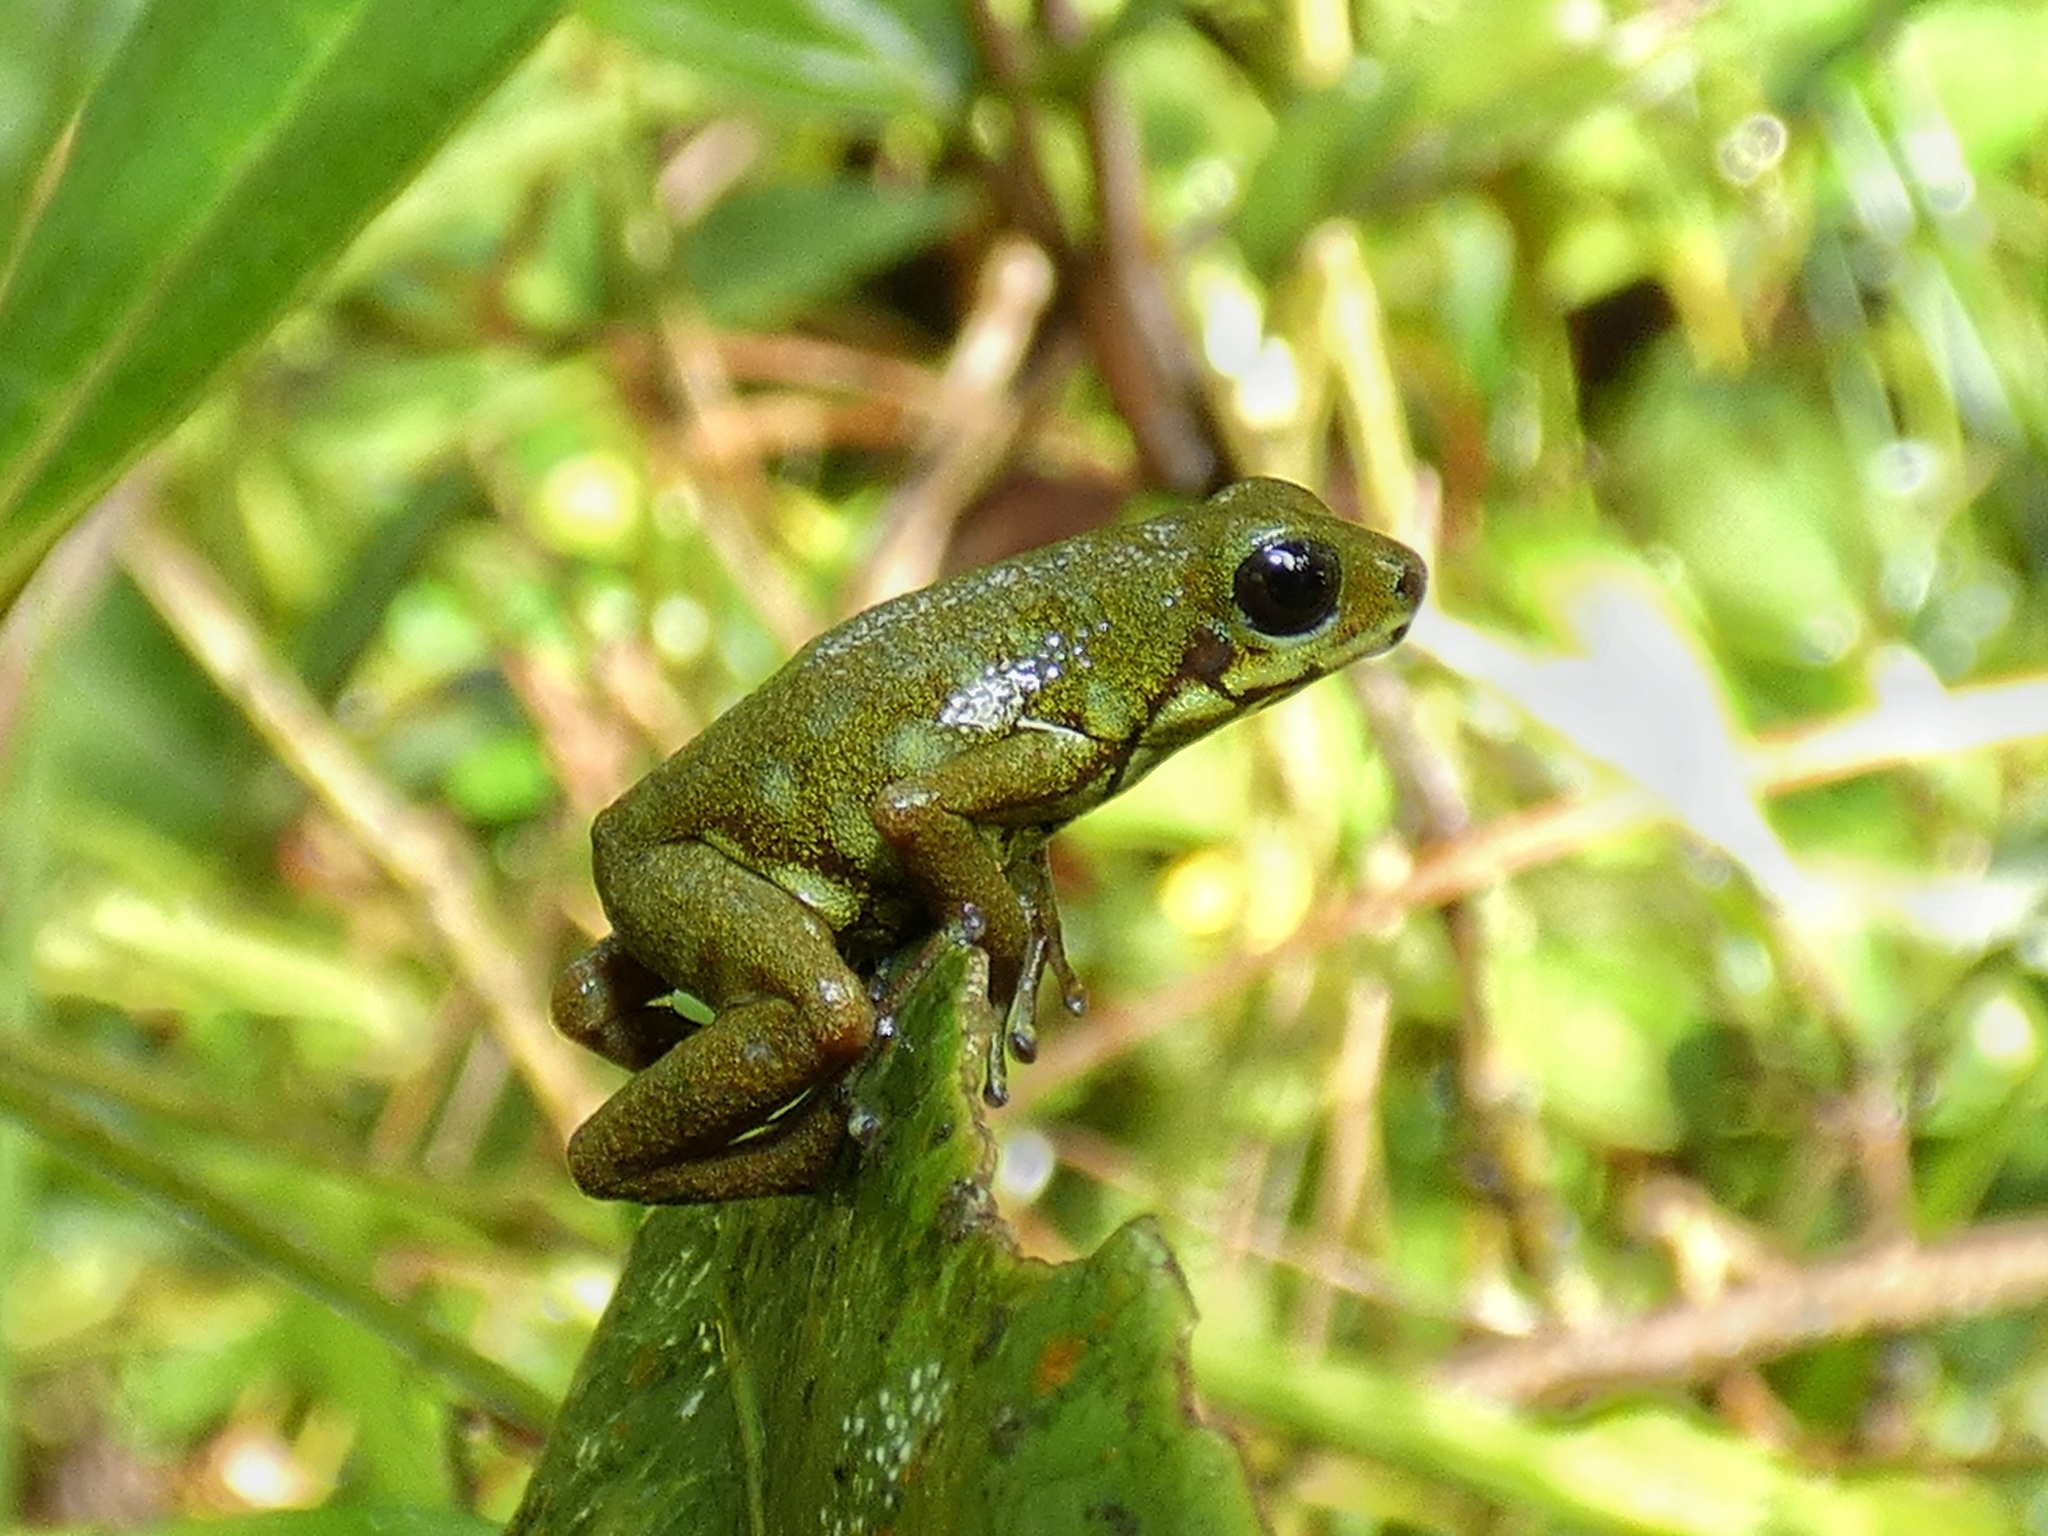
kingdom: Animalia
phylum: Chordata
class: Amphibia
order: Anura
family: Dendrobatidae
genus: Oophaga
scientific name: Oophaga vicentei
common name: Vicente's poison frog
